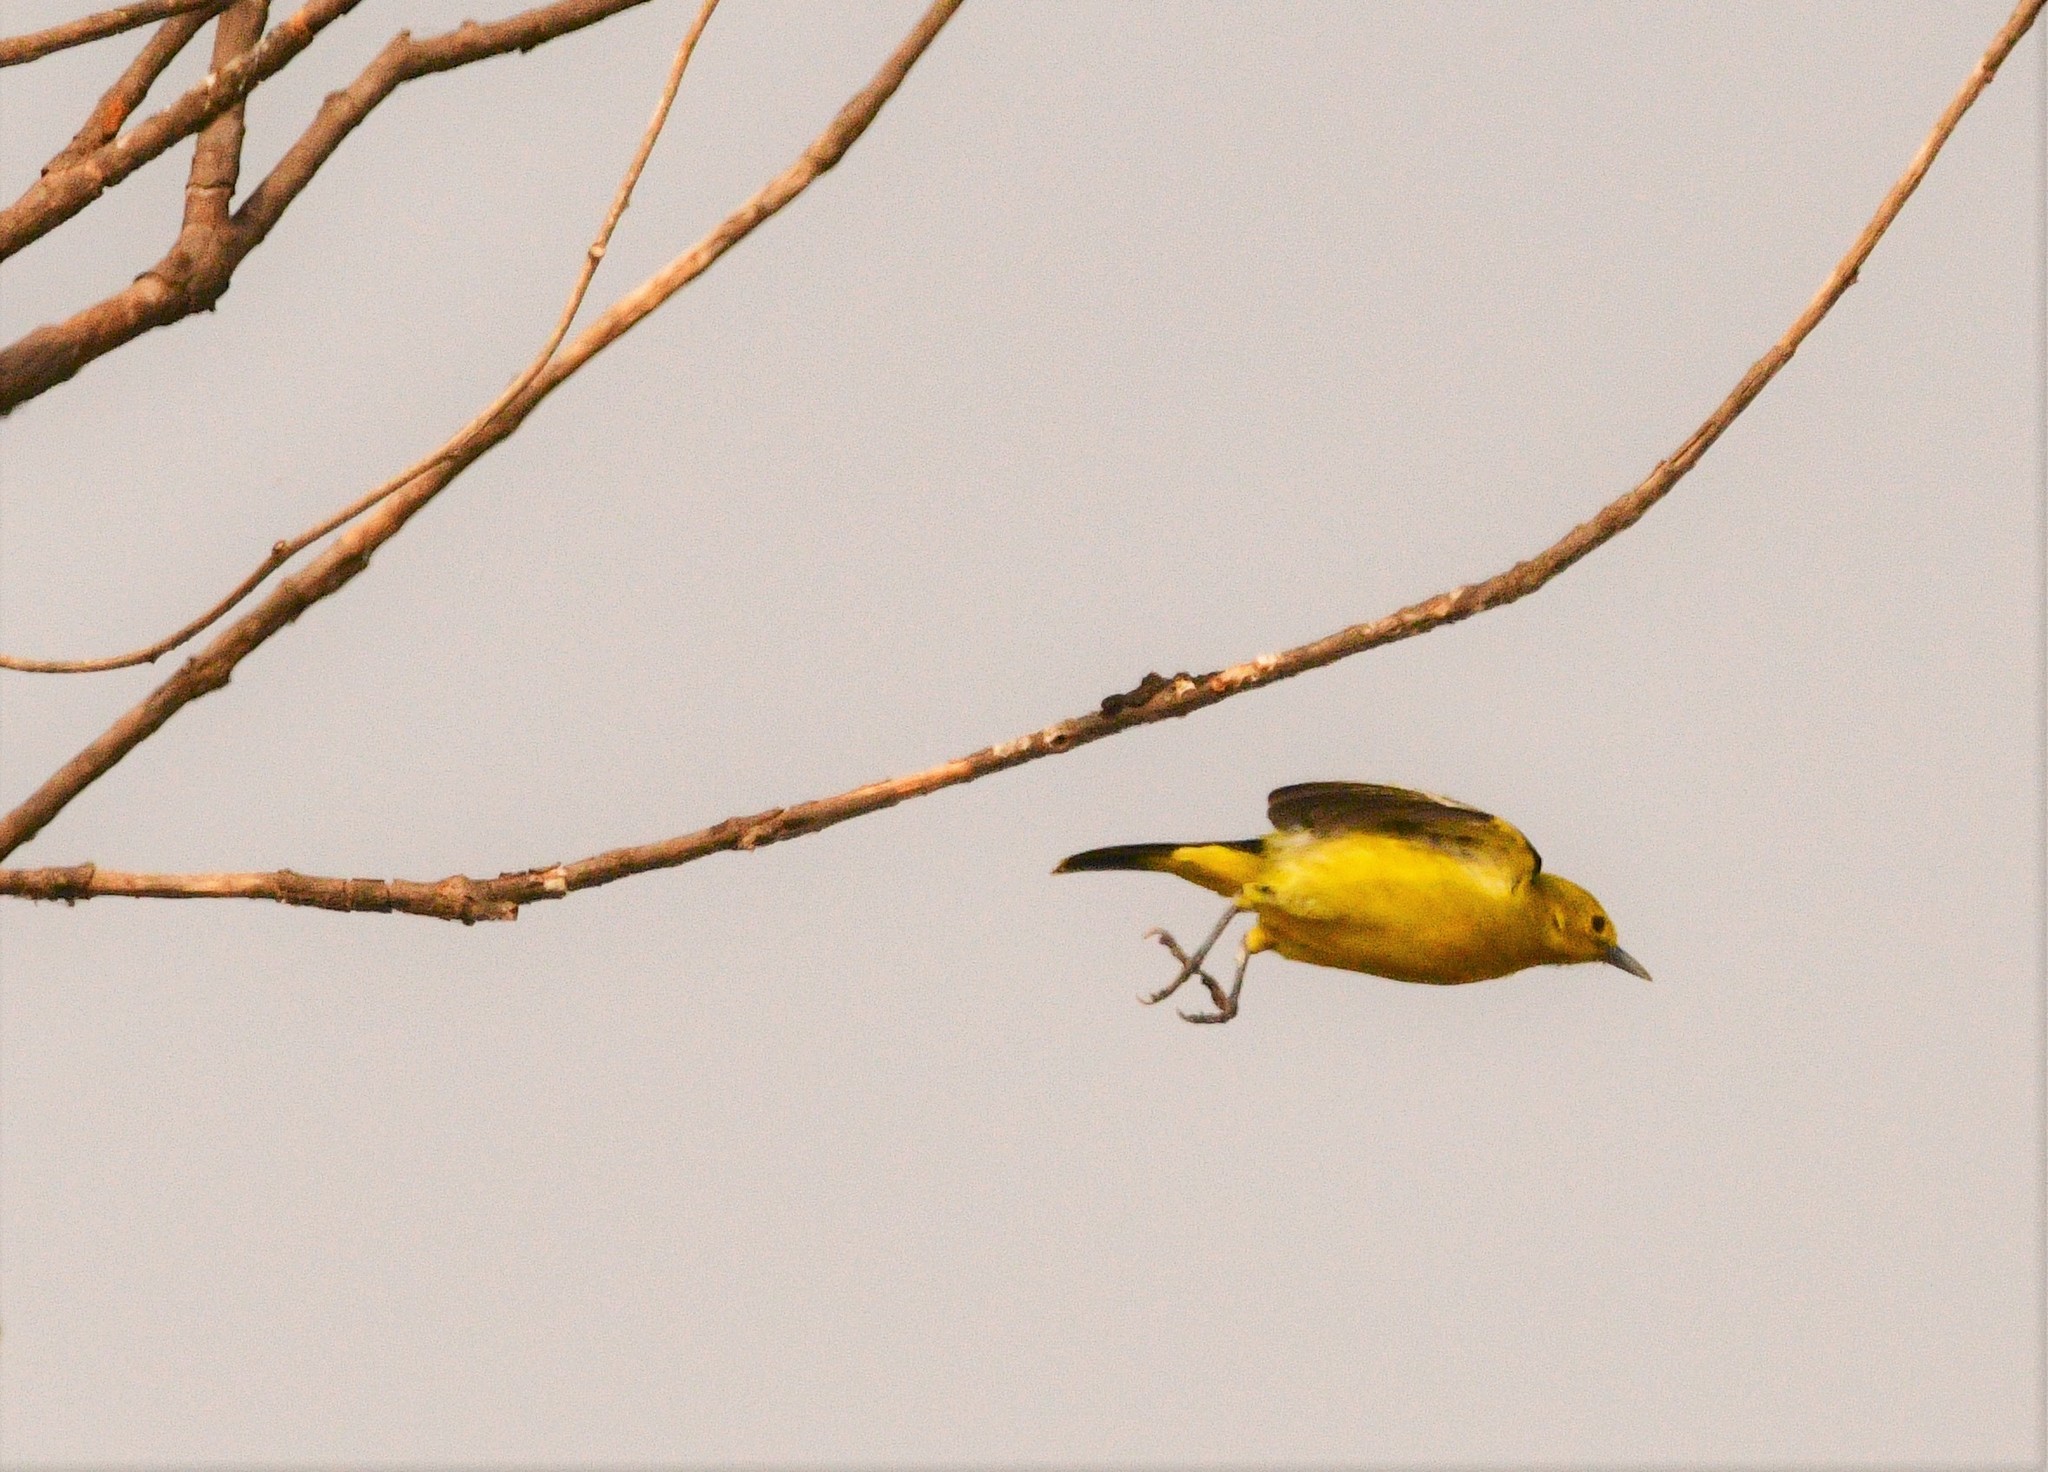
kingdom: Animalia
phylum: Chordata
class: Aves
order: Passeriformes
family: Aegithinidae
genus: Aegithina
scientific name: Aegithina tiphia
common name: Common iora
